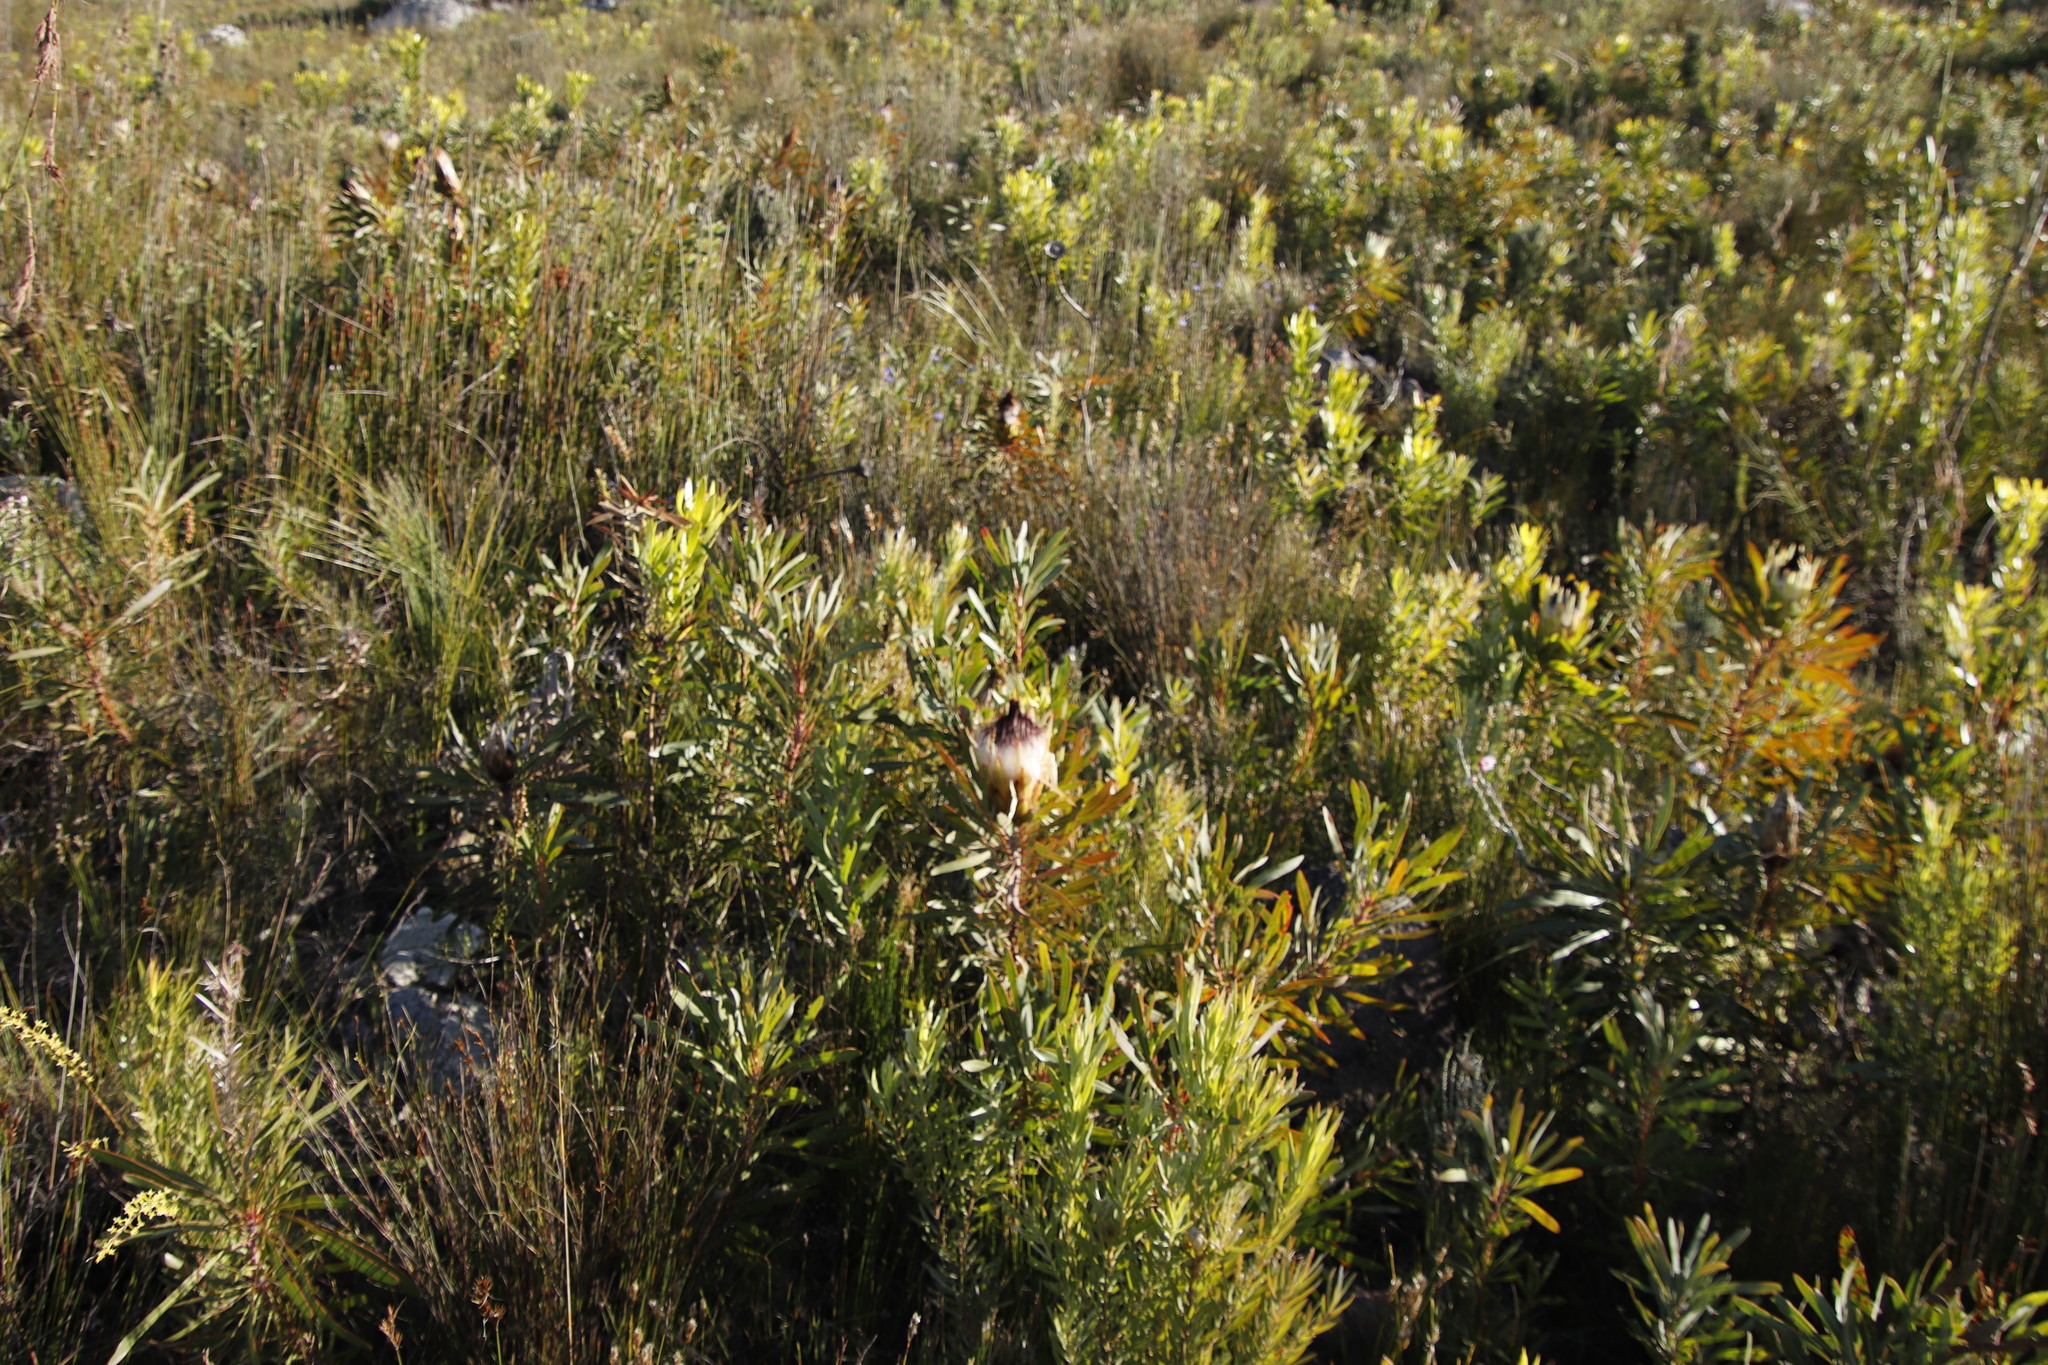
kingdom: Plantae
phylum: Tracheophyta
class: Magnoliopsida
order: Proteales
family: Proteaceae
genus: Protea
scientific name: Protea longifolia
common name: Long-leaf sugarbush
